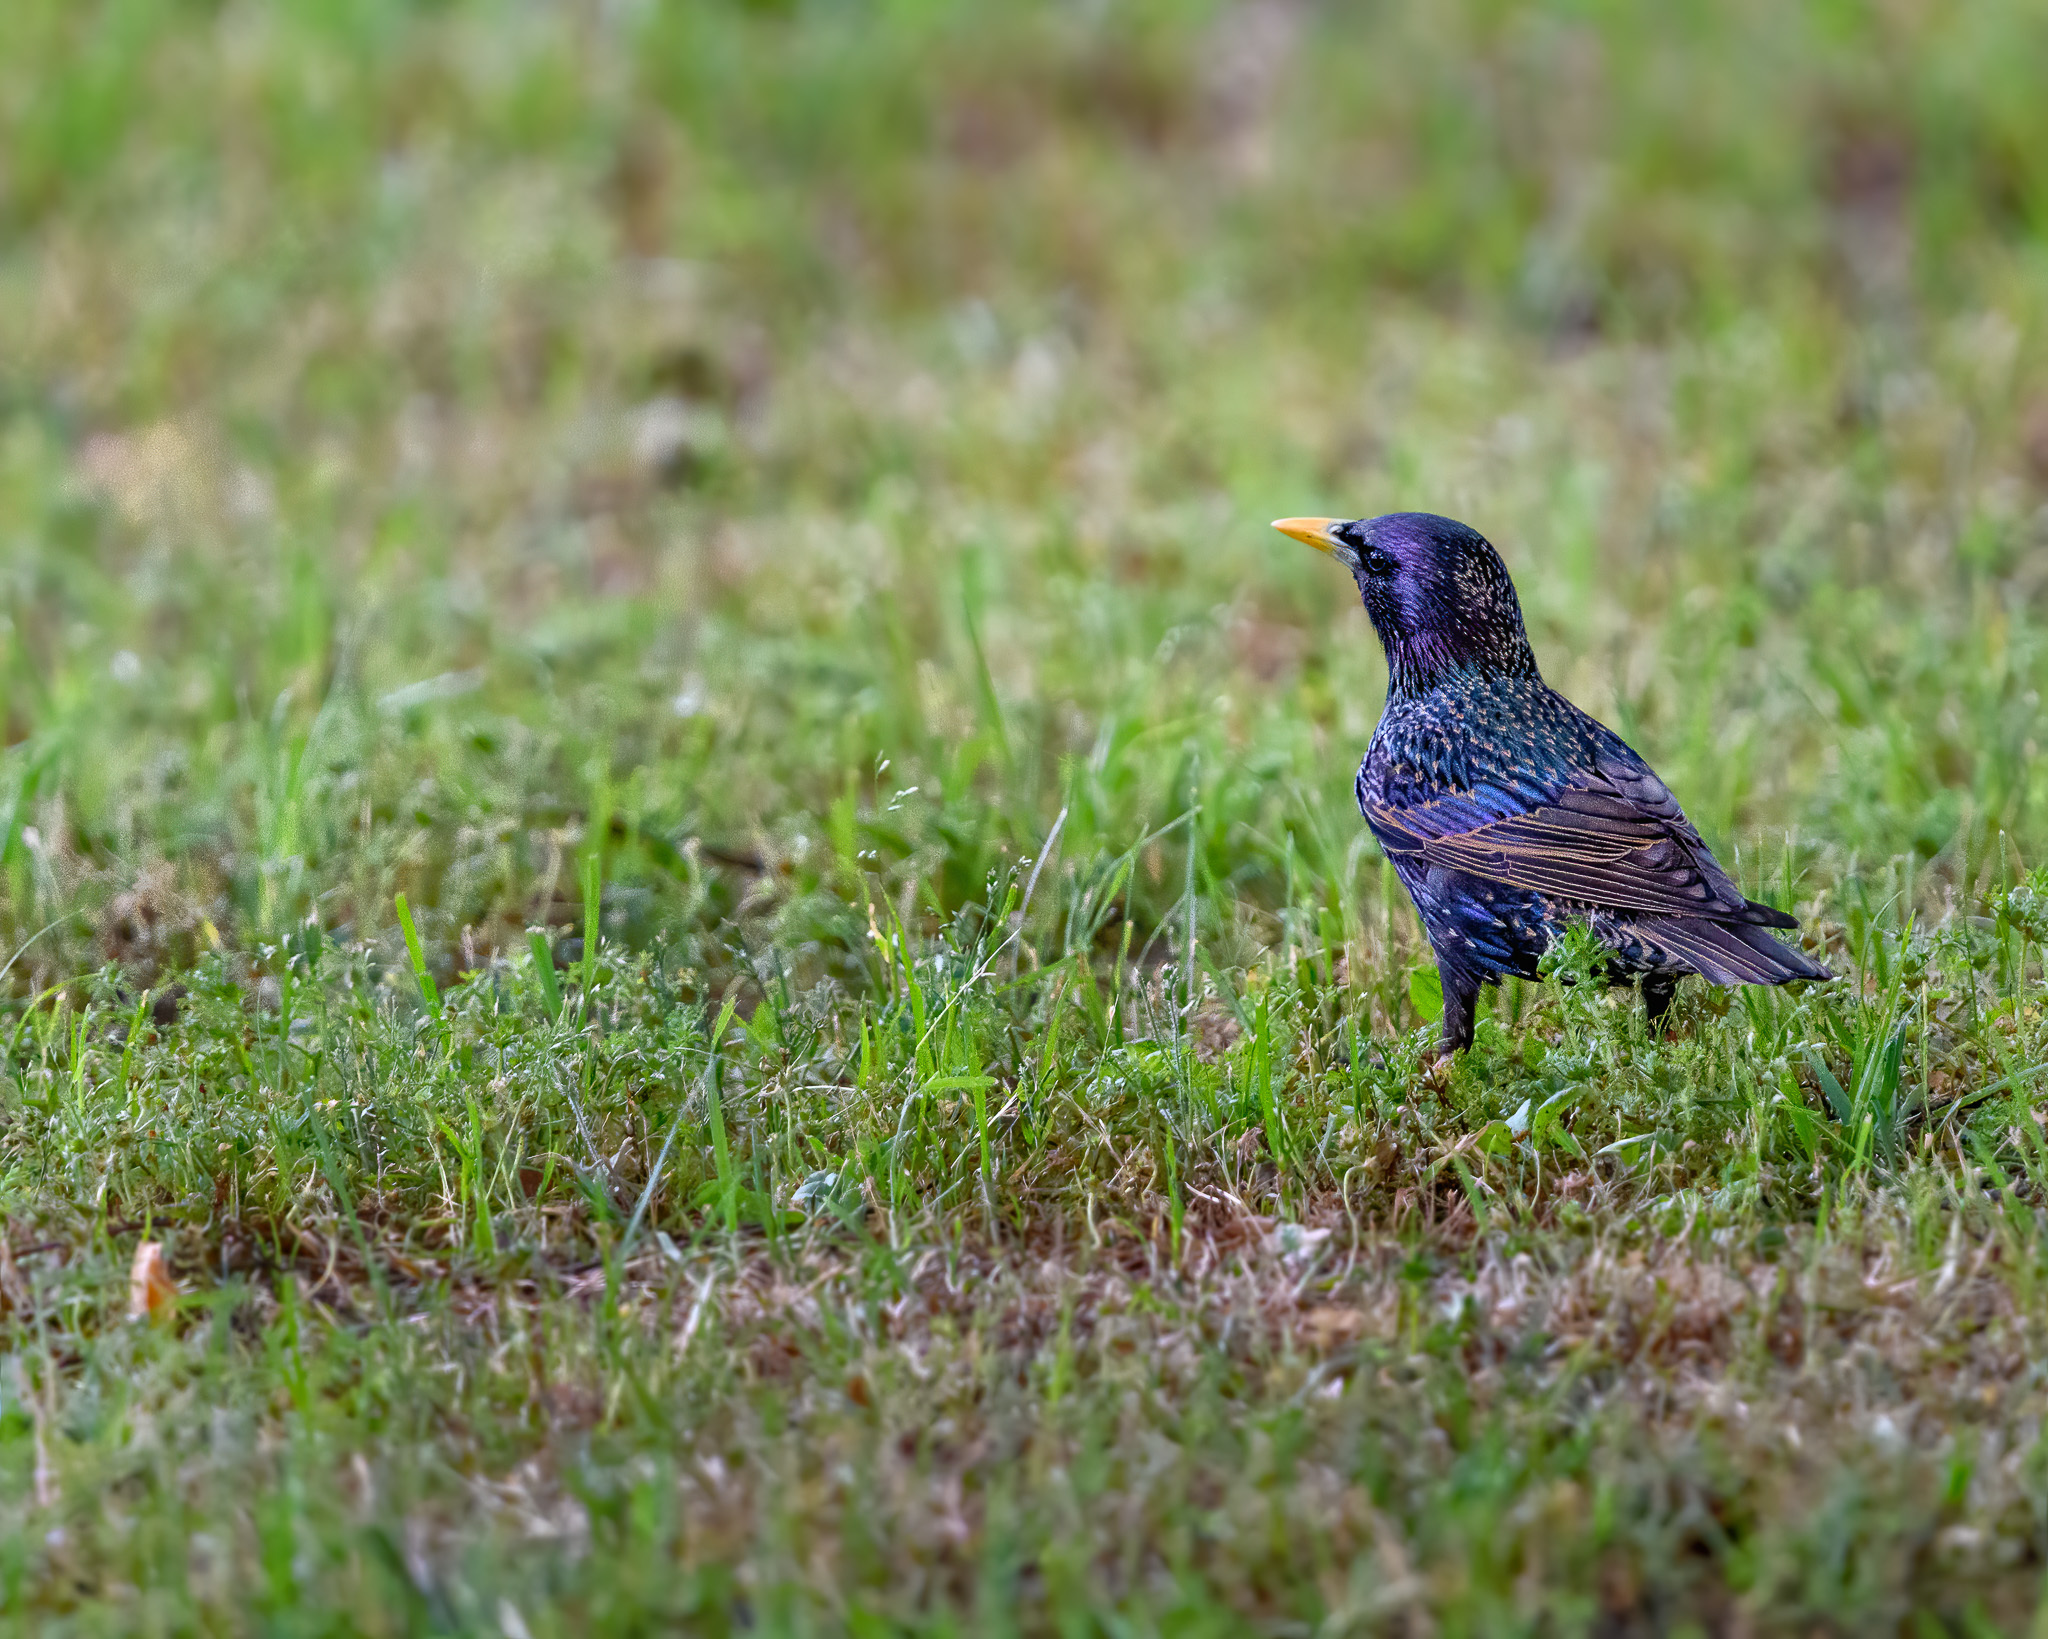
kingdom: Animalia
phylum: Chordata
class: Aves
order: Passeriformes
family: Sturnidae
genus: Sturnus
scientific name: Sturnus vulgaris
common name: Common starling
